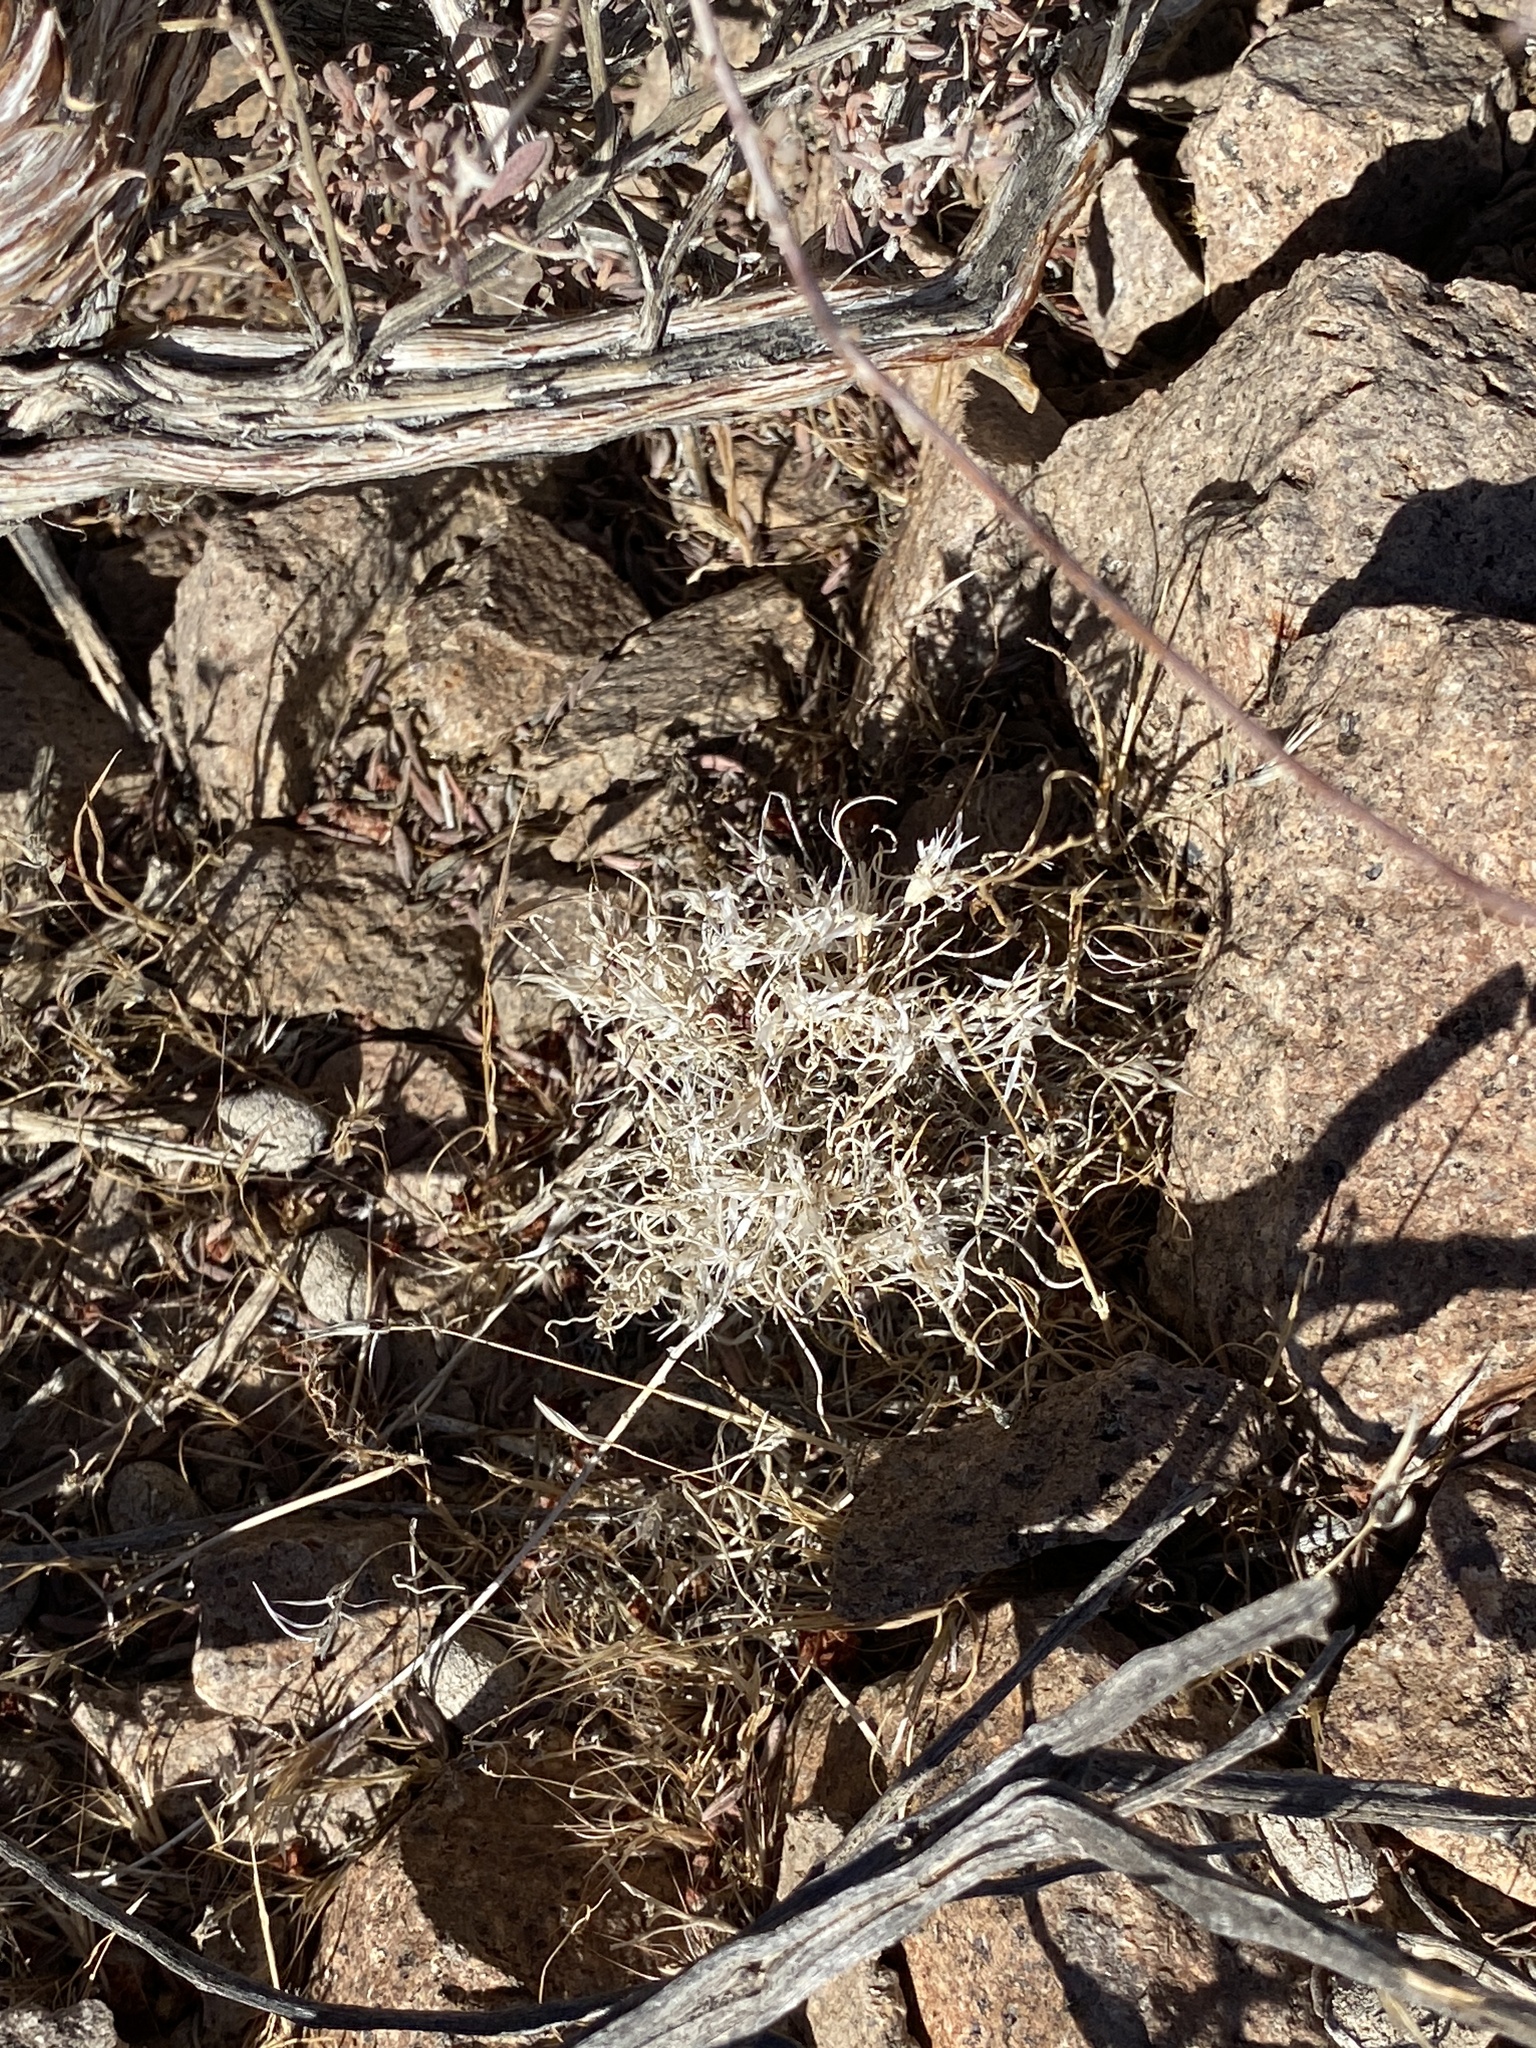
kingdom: Plantae
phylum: Tracheophyta
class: Liliopsida
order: Poales
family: Poaceae
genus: Dasyochloa
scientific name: Dasyochloa pulchella
